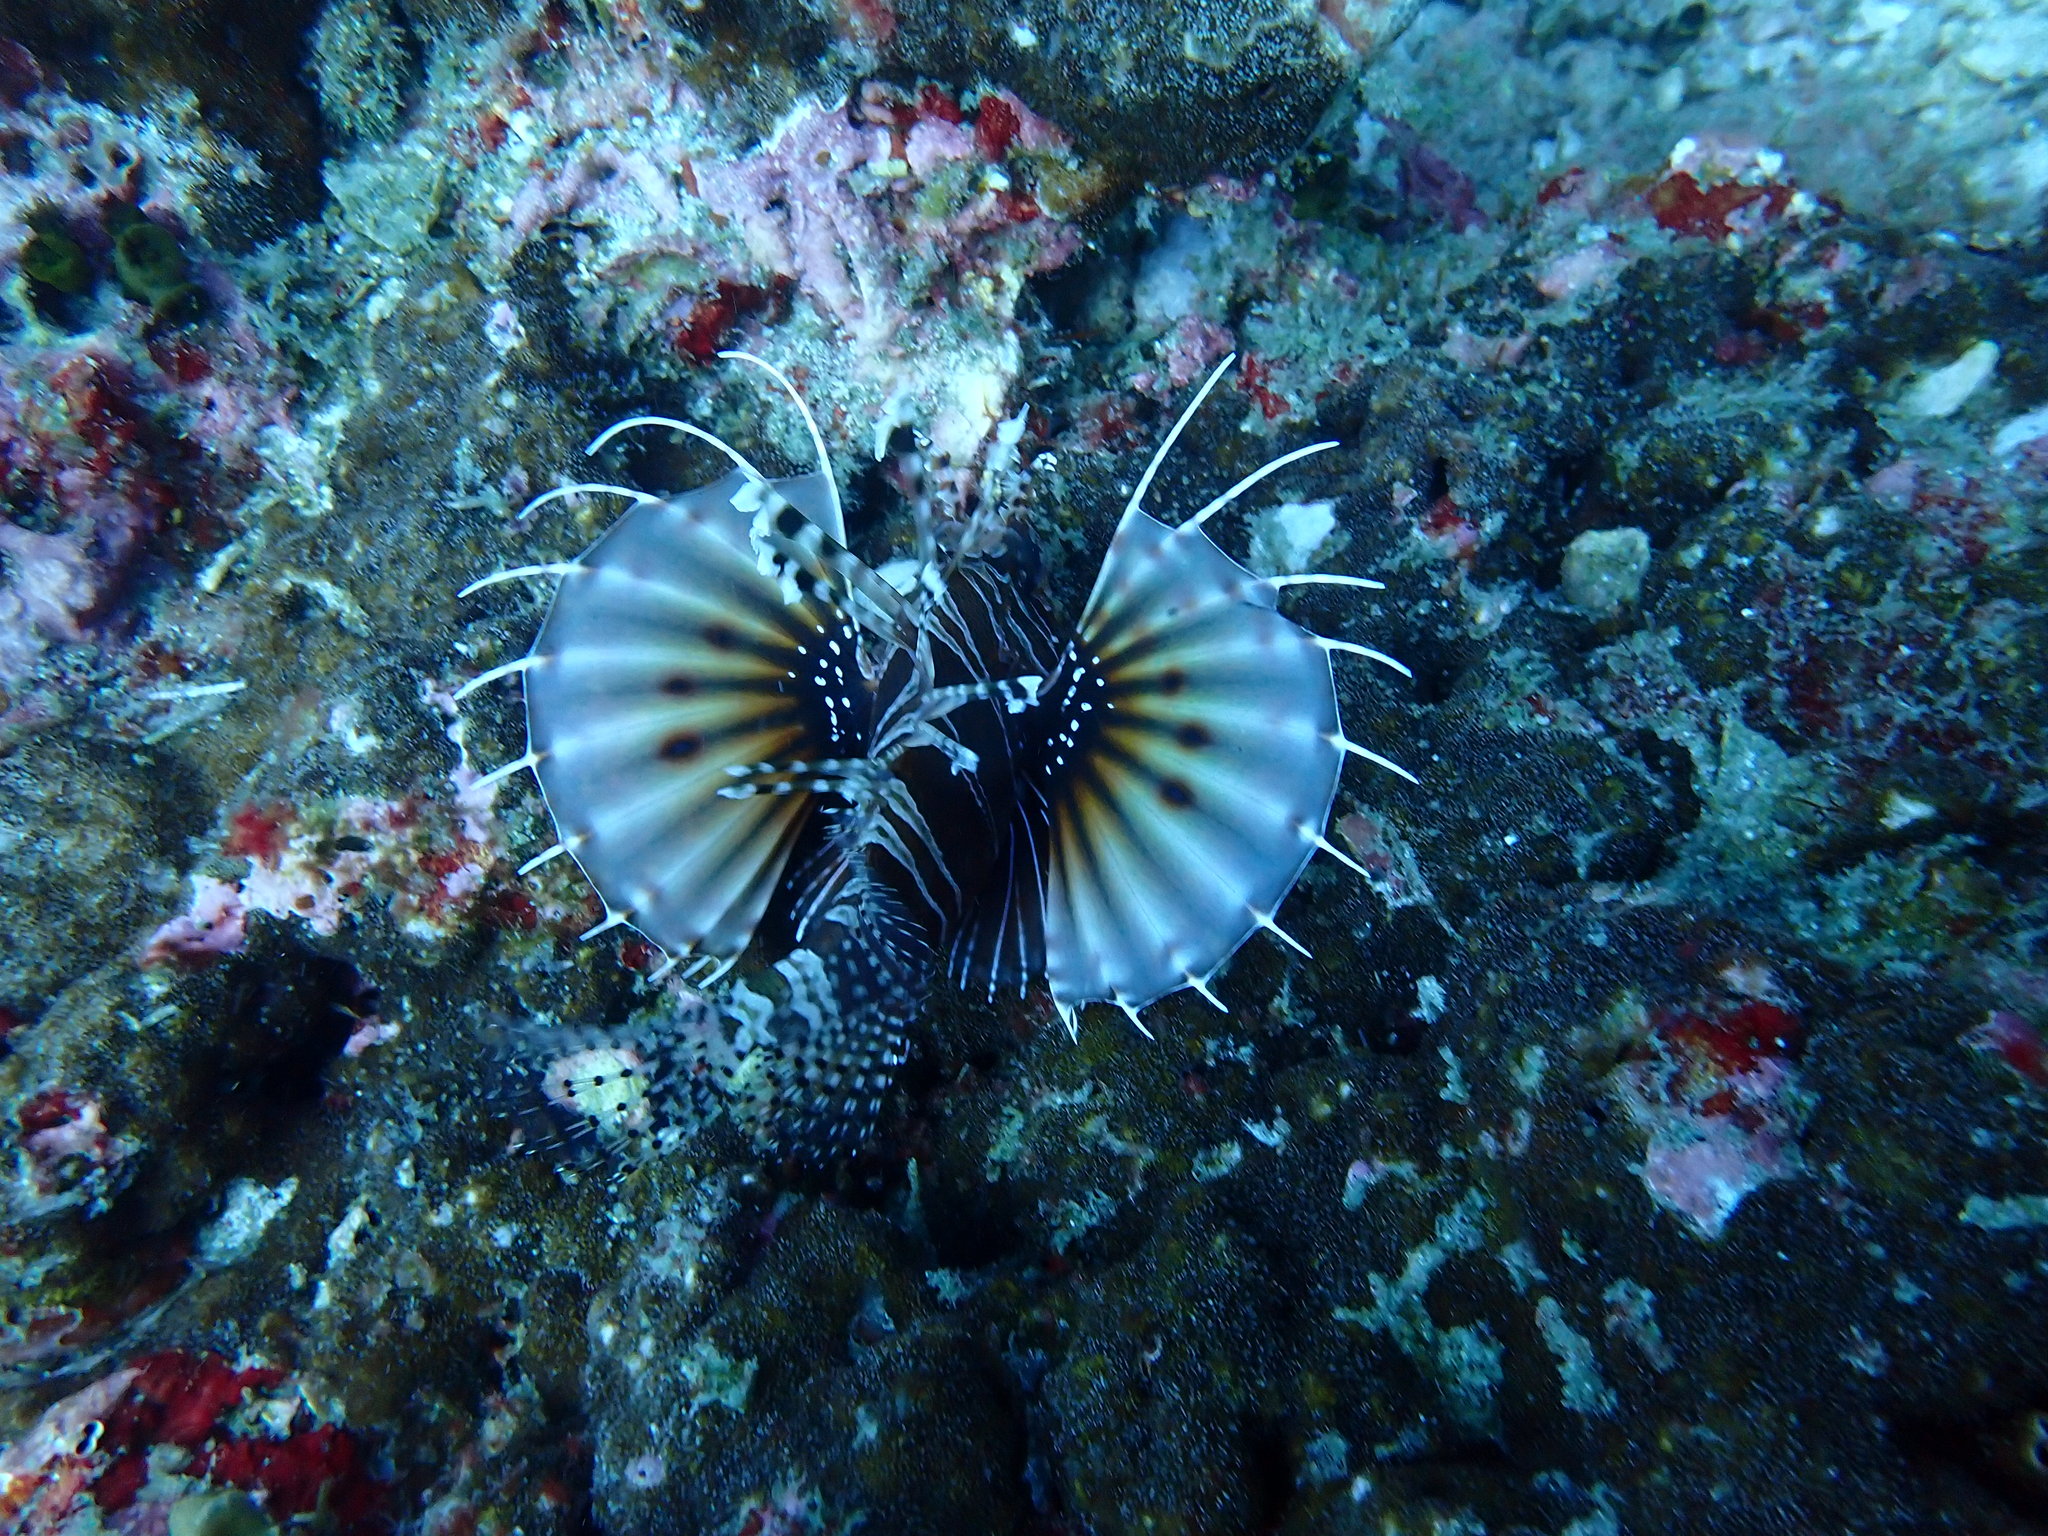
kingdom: Animalia
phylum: Chordata
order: Scorpaeniformes
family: Scorpaenidae
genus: Dendrochirus
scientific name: Dendrochirus zebra
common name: Zebra lionfish
